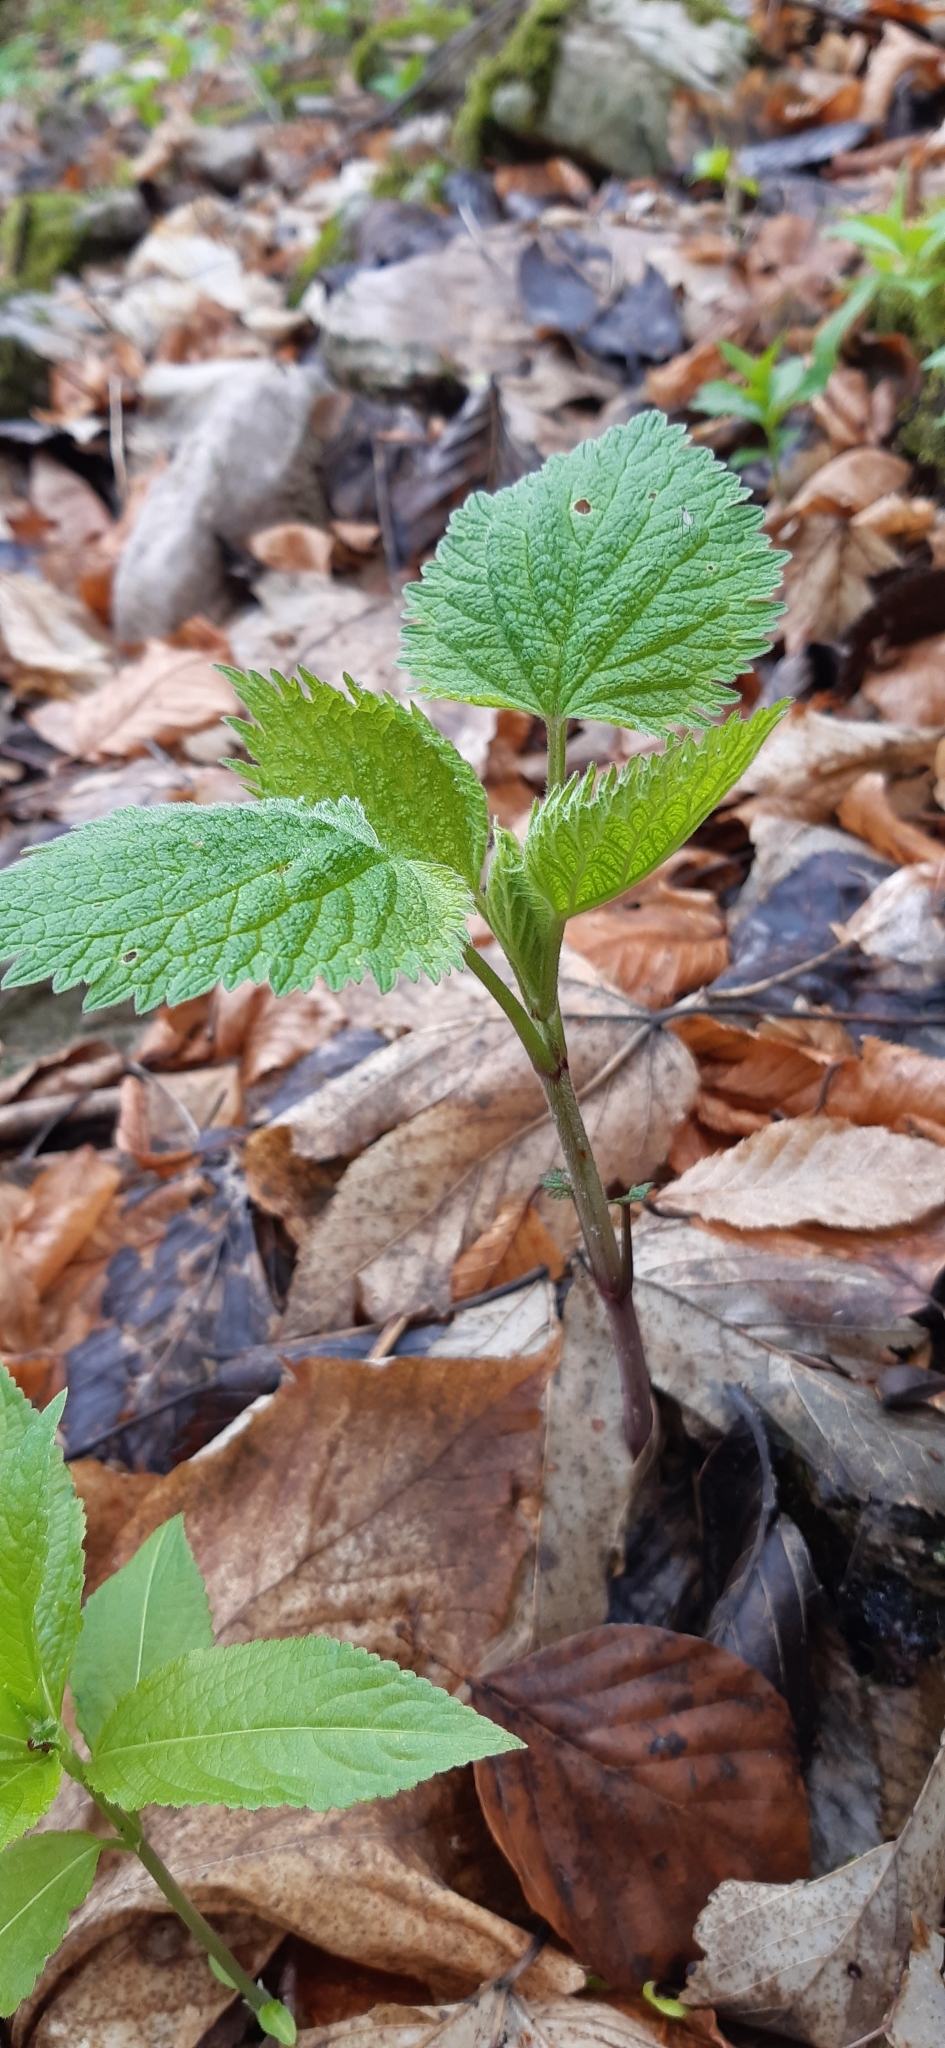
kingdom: Plantae
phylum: Tracheophyta
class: Magnoliopsida
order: Lamiales
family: Lamiaceae
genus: Lamium
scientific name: Lamium orvala
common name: Balm-leaved archangel
